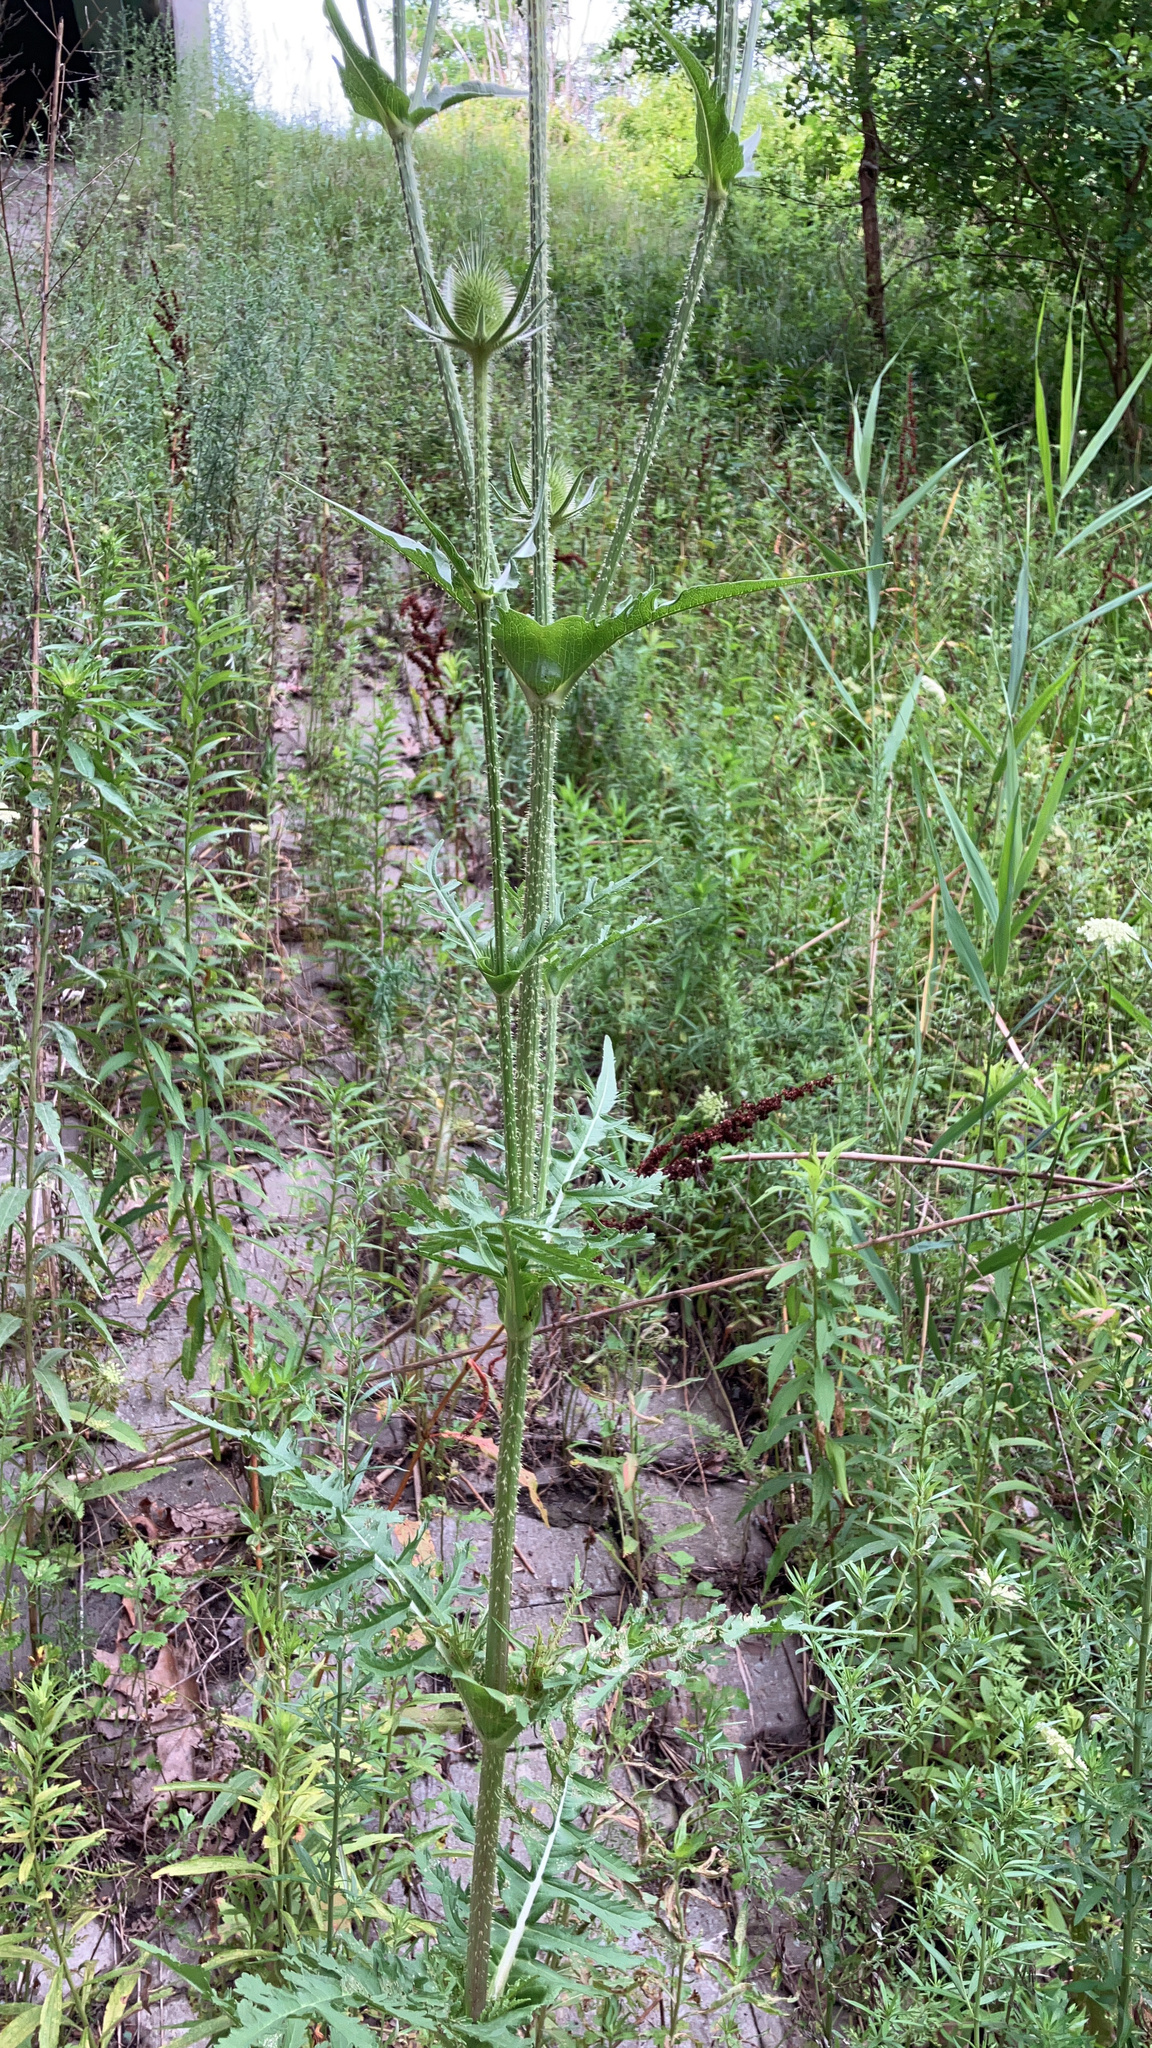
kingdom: Plantae
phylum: Tracheophyta
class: Magnoliopsida
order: Dipsacales
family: Caprifoliaceae
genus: Dipsacus
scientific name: Dipsacus laciniatus
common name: Cut-leaved teasel
